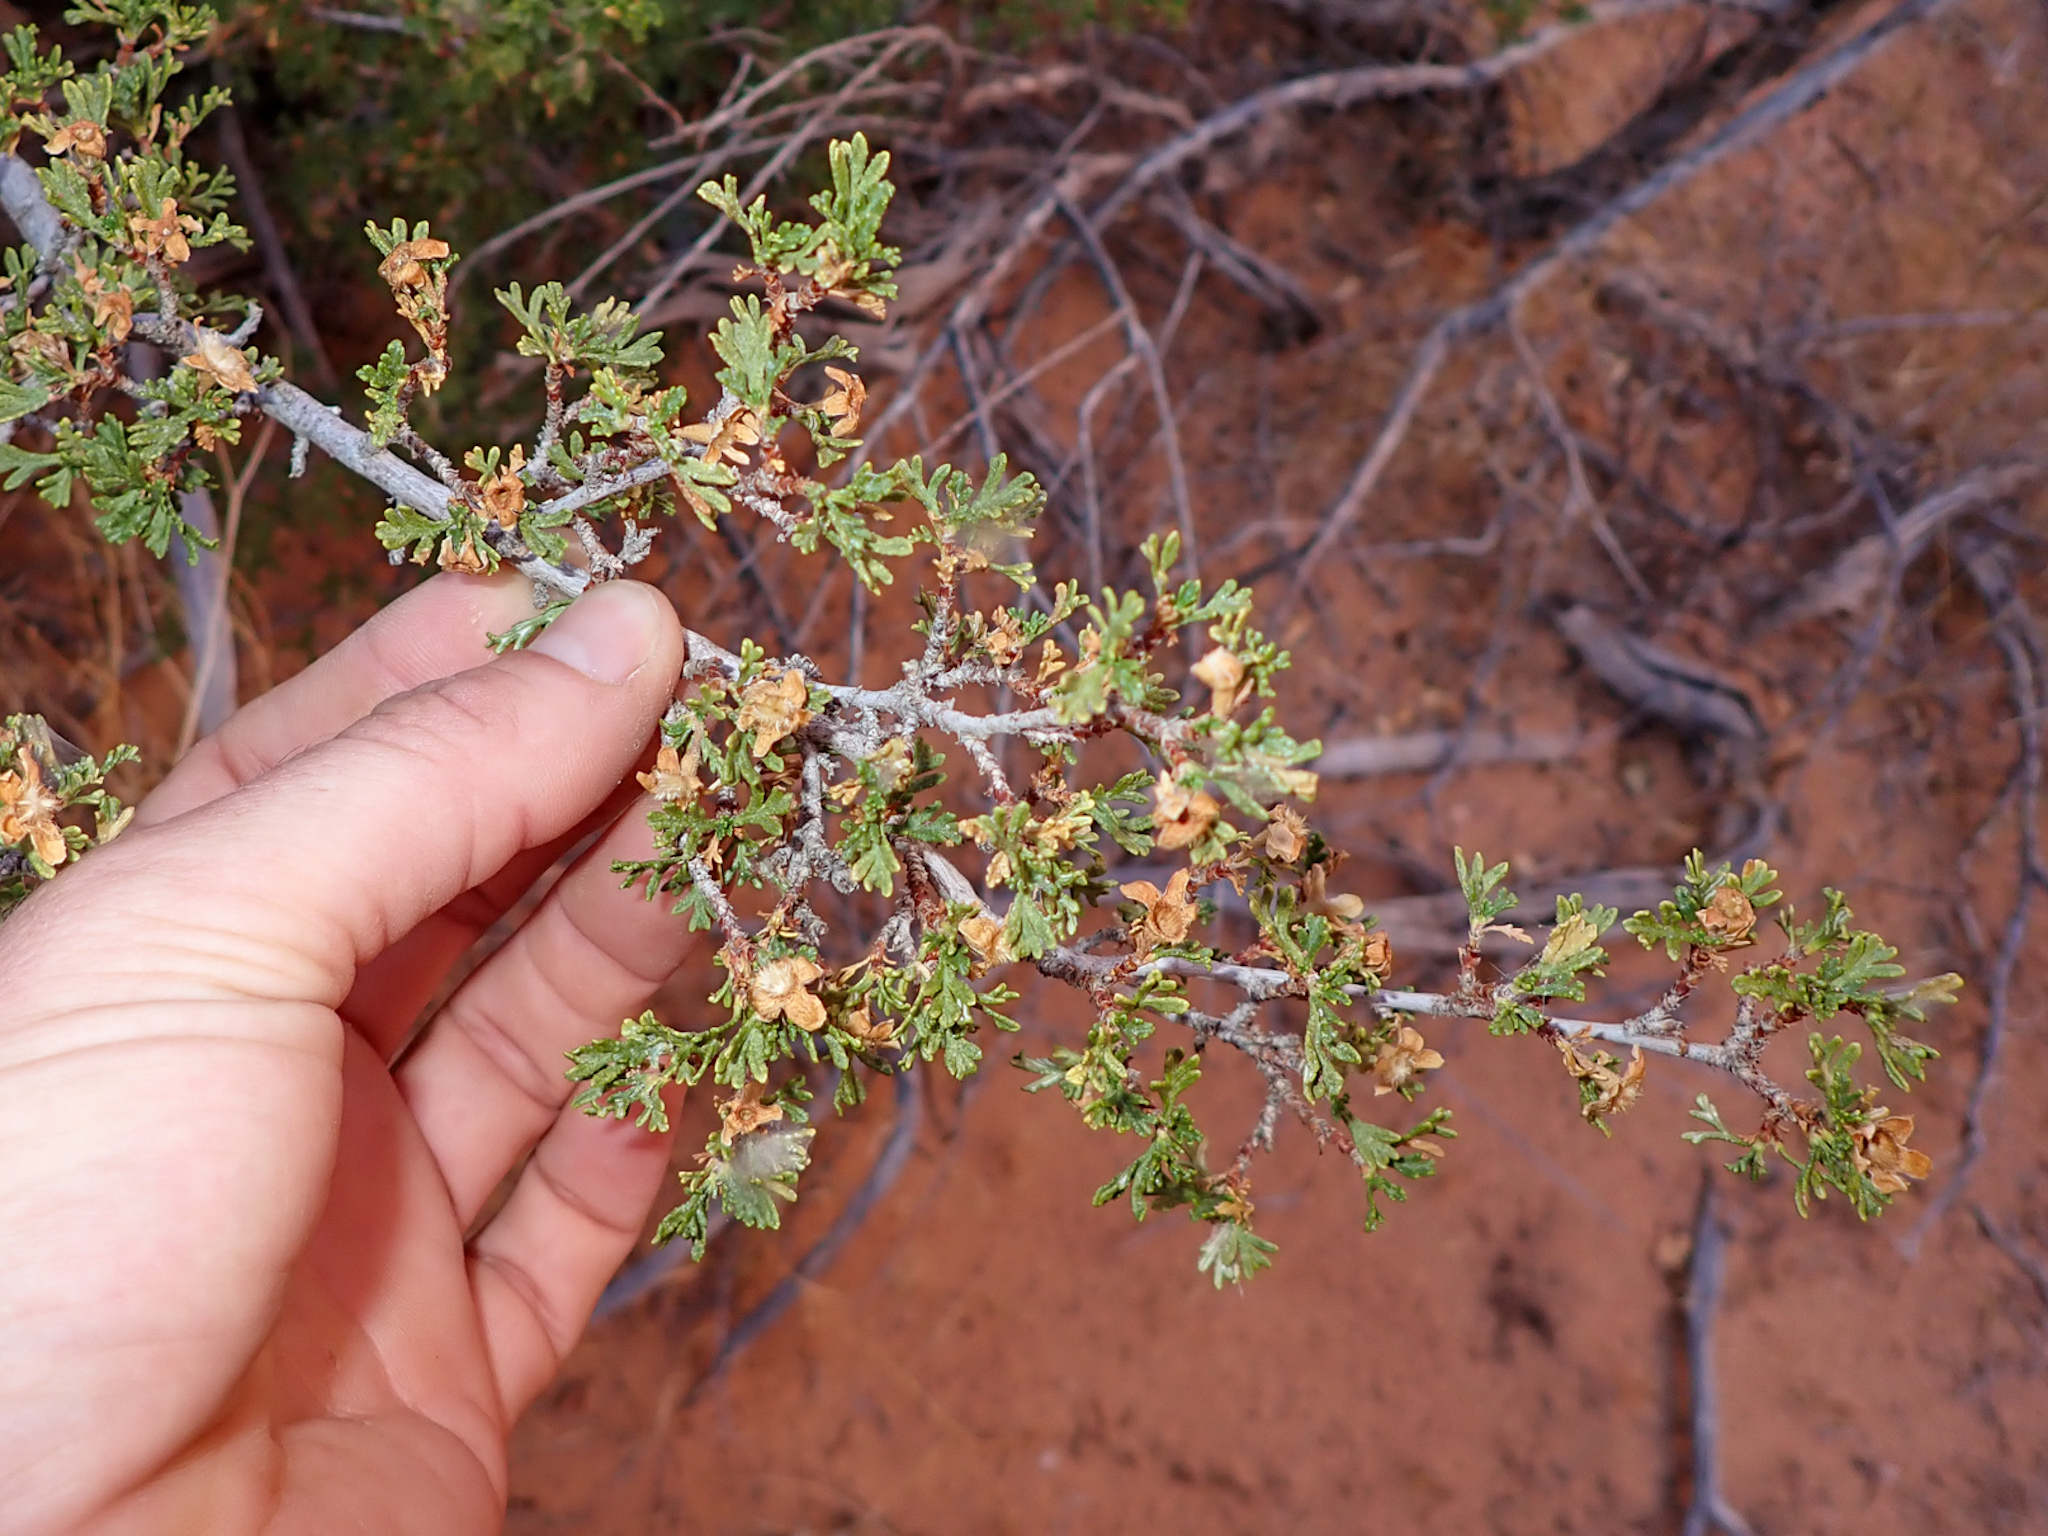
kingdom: Plantae
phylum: Tracheophyta
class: Magnoliopsida
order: Rosales
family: Rosaceae
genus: Purshia
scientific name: Purshia stansburiana
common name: Stansbury's cliffrose
